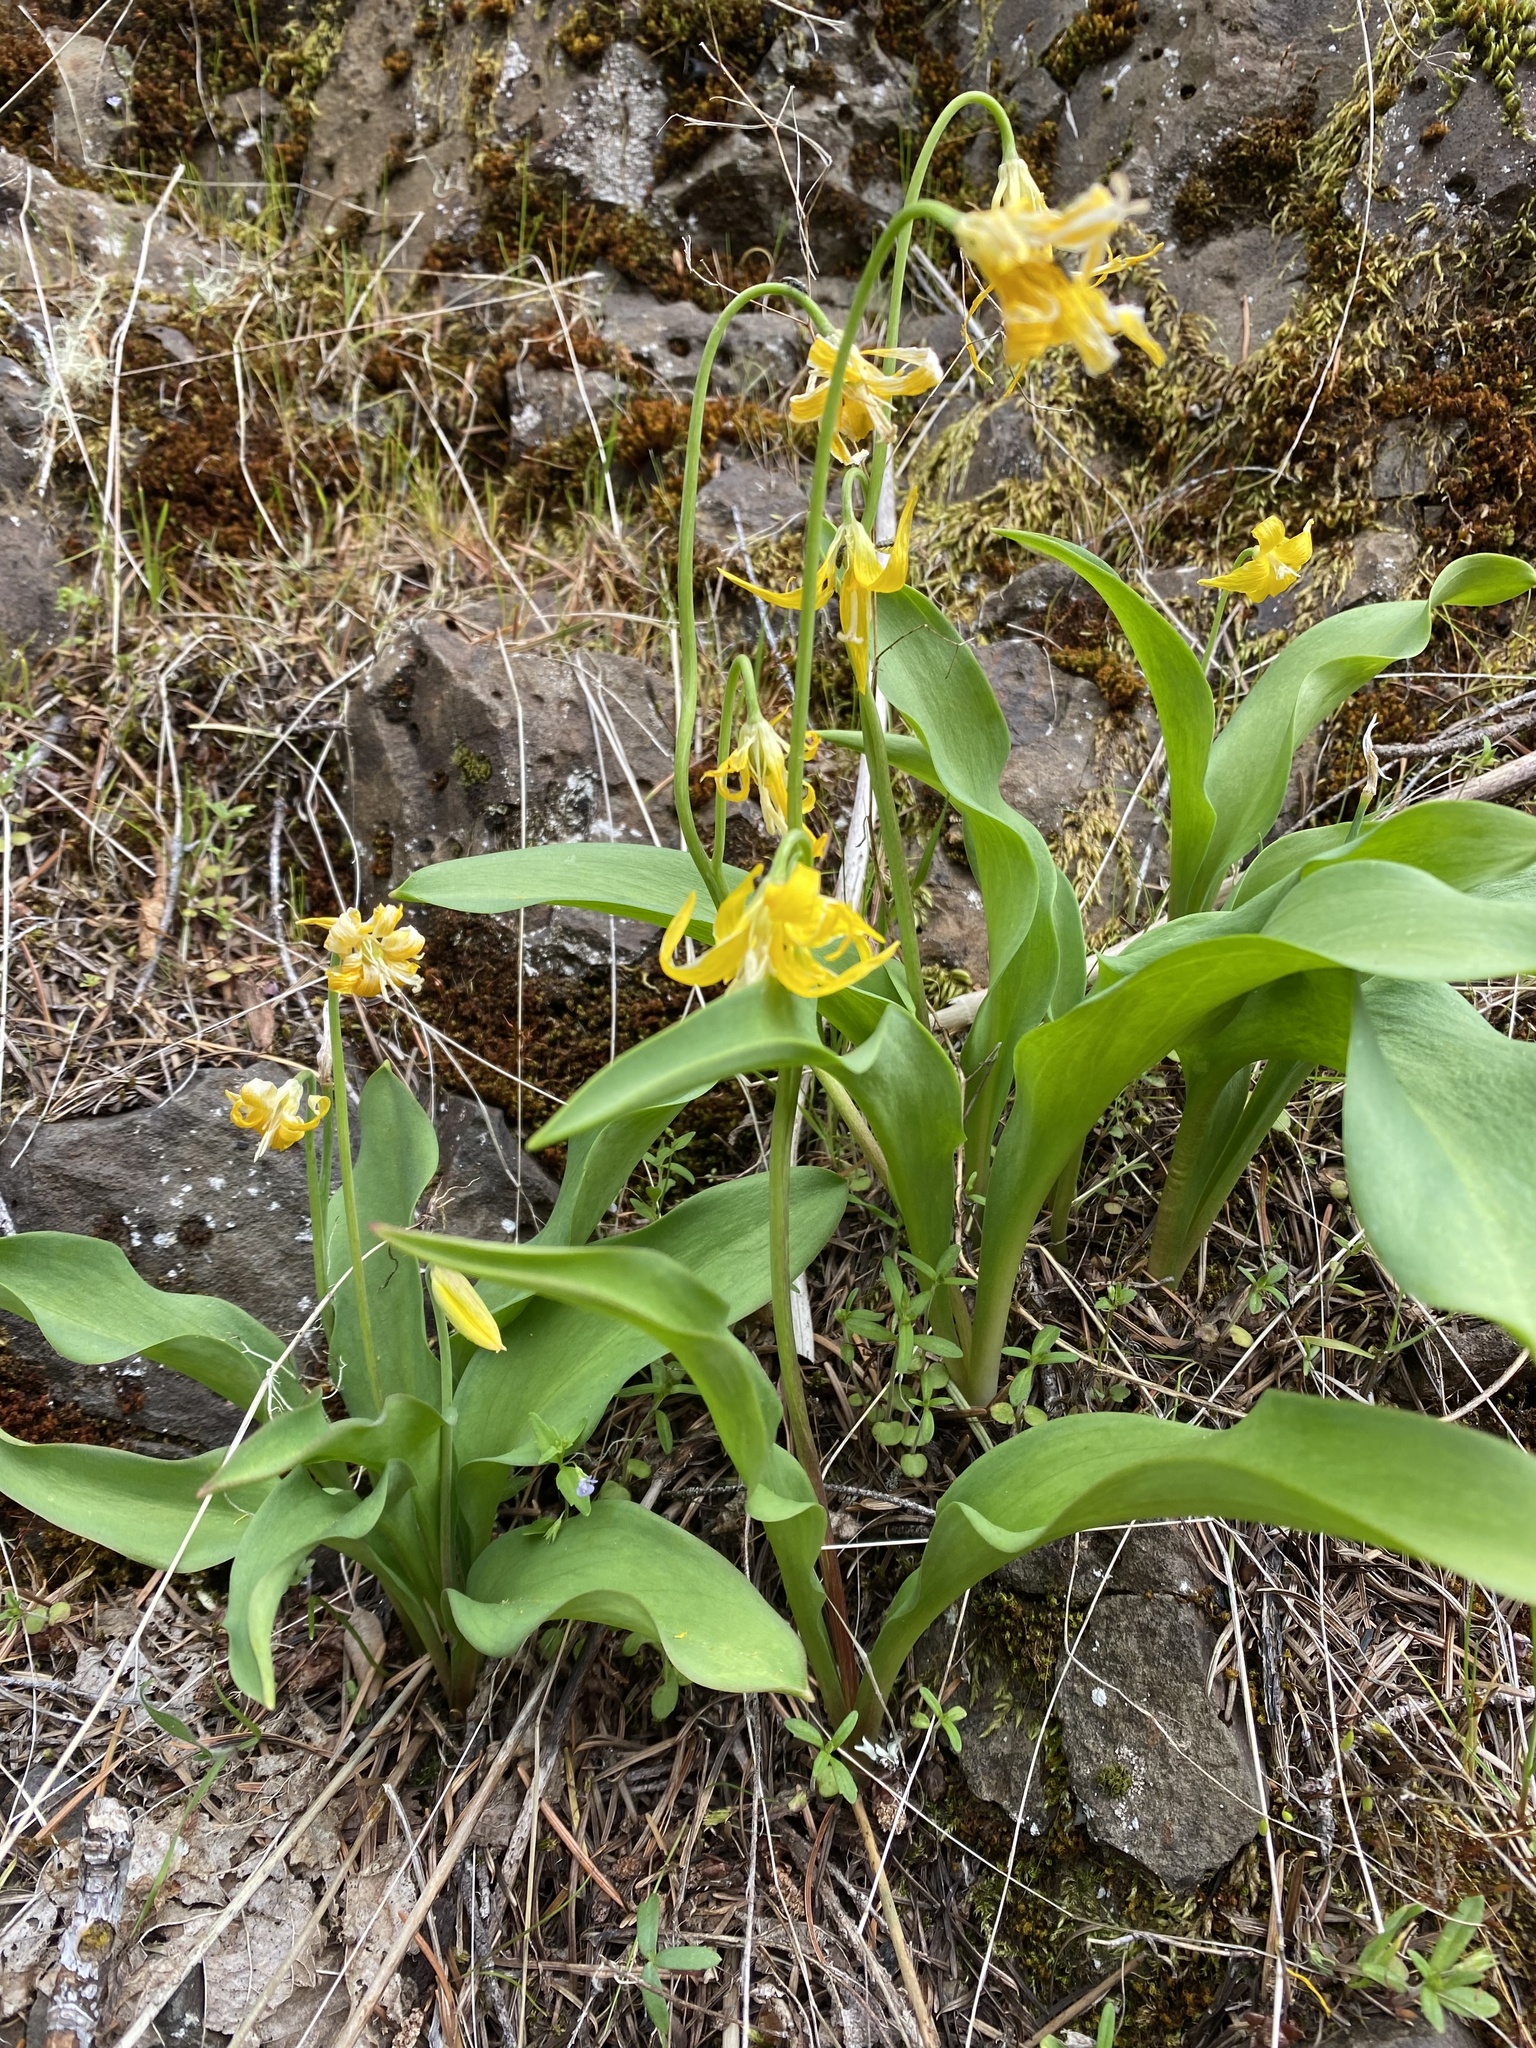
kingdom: Plantae
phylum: Tracheophyta
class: Liliopsida
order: Liliales
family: Liliaceae
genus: Erythronium
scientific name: Erythronium grandiflorum
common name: Avalanche-lily
